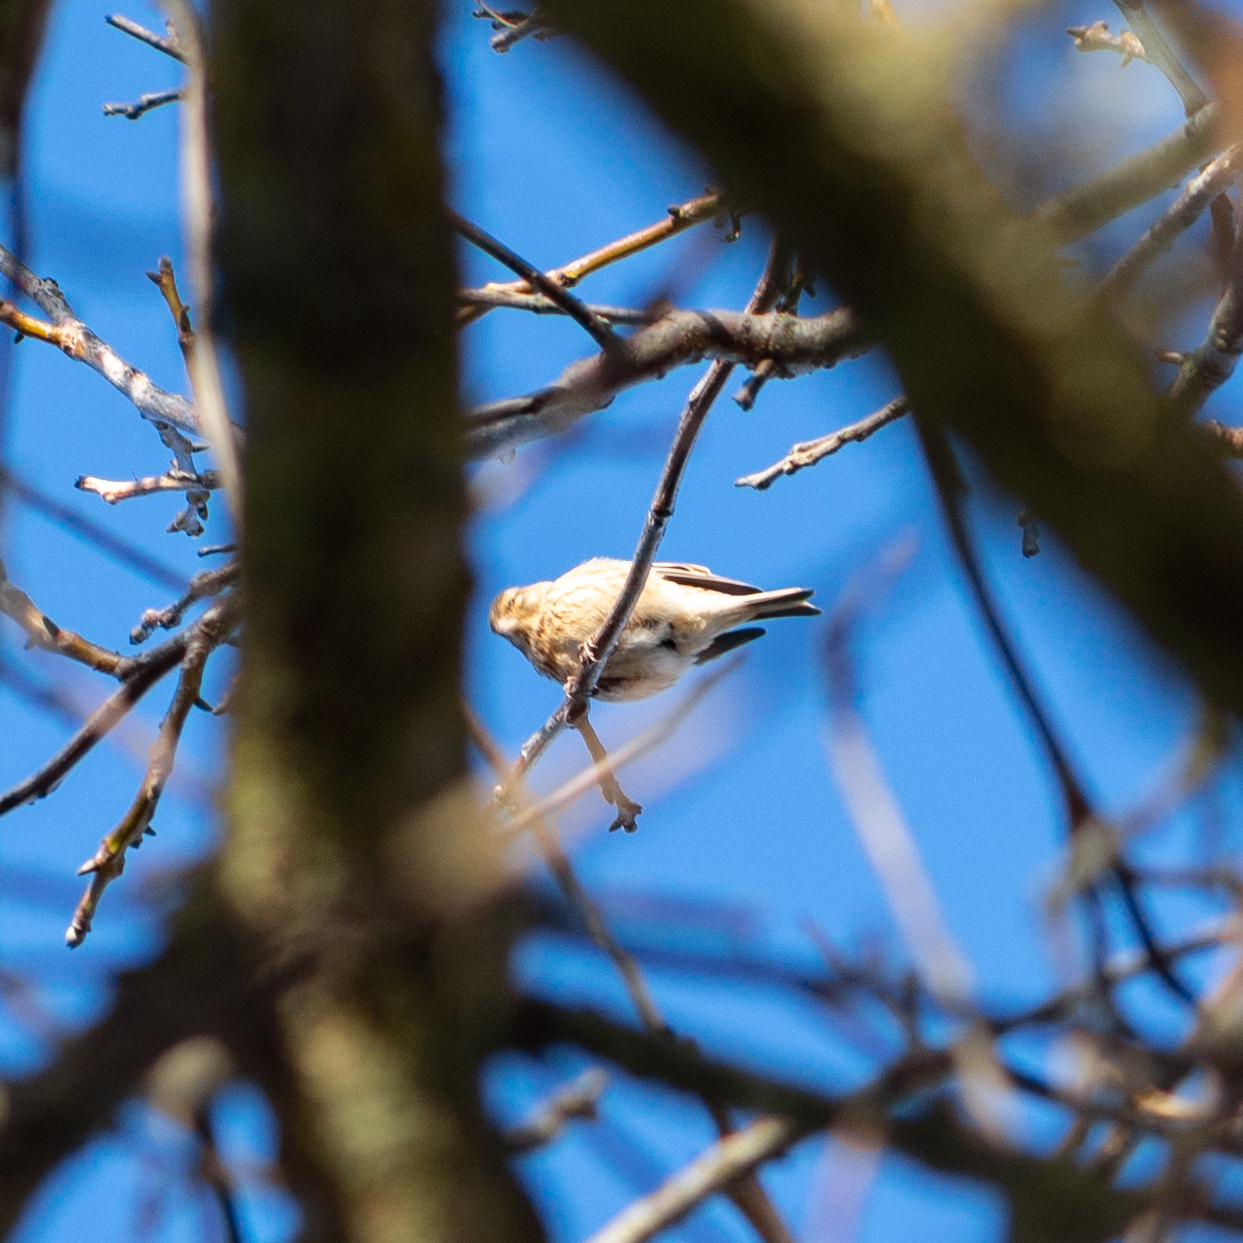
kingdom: Animalia
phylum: Chordata
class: Aves
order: Passeriformes
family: Fringillidae
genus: Linaria
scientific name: Linaria cannabina
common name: Common linnet
